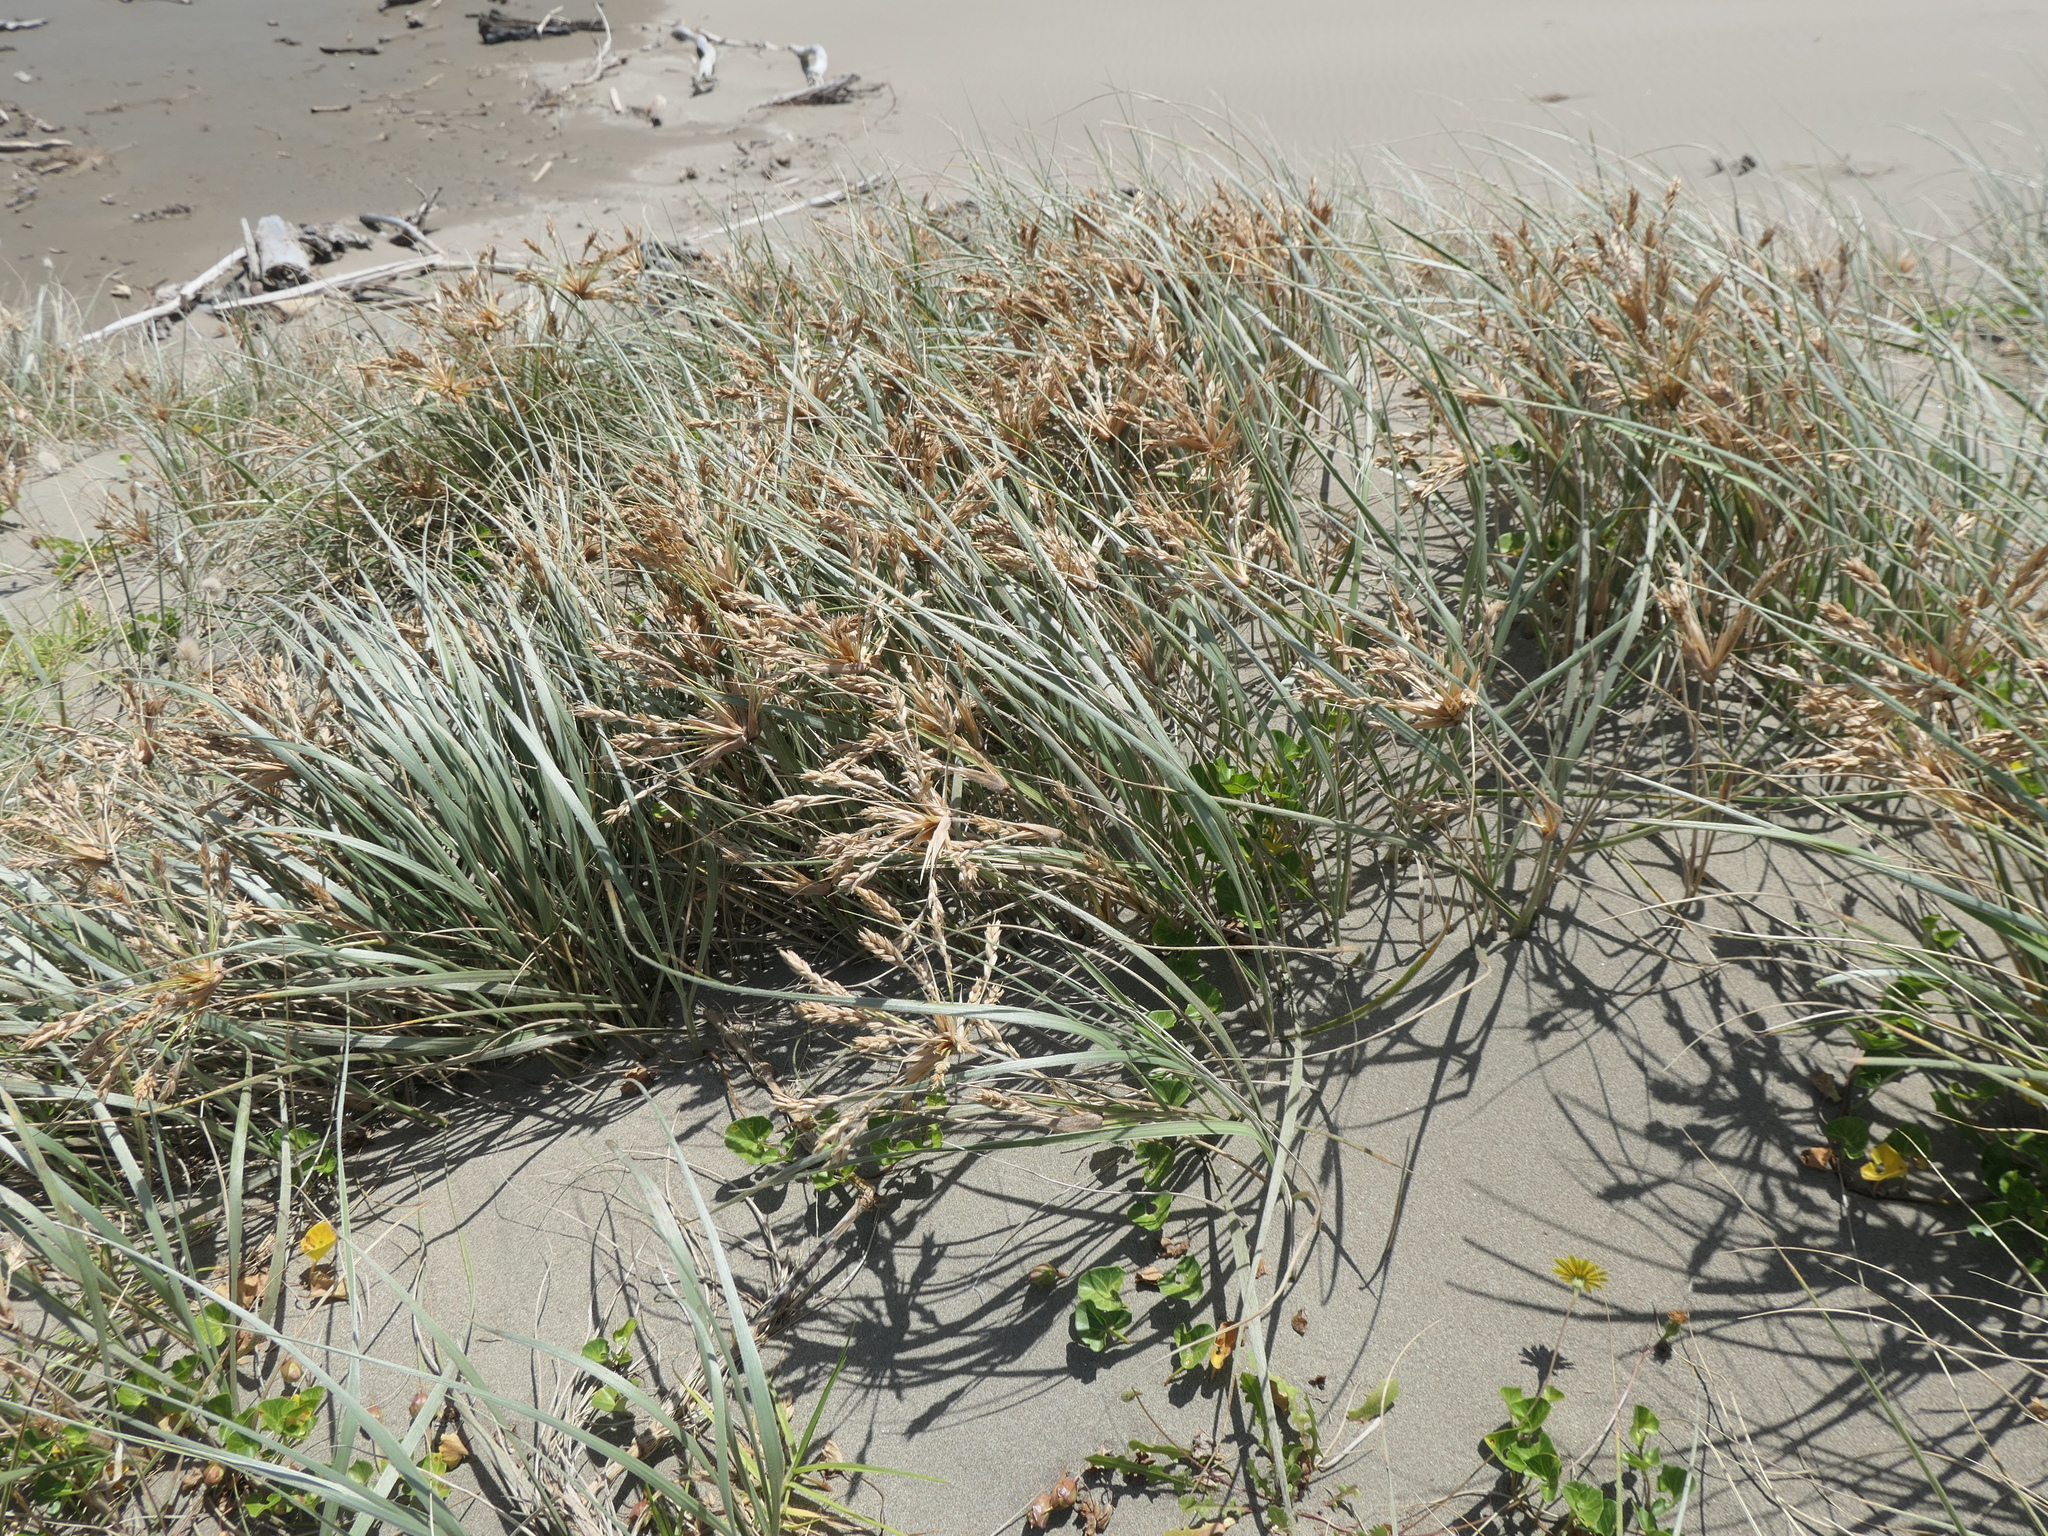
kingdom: Plantae
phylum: Tracheophyta
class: Liliopsida
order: Poales
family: Poaceae
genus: Spinifex
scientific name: Spinifex sericeus
